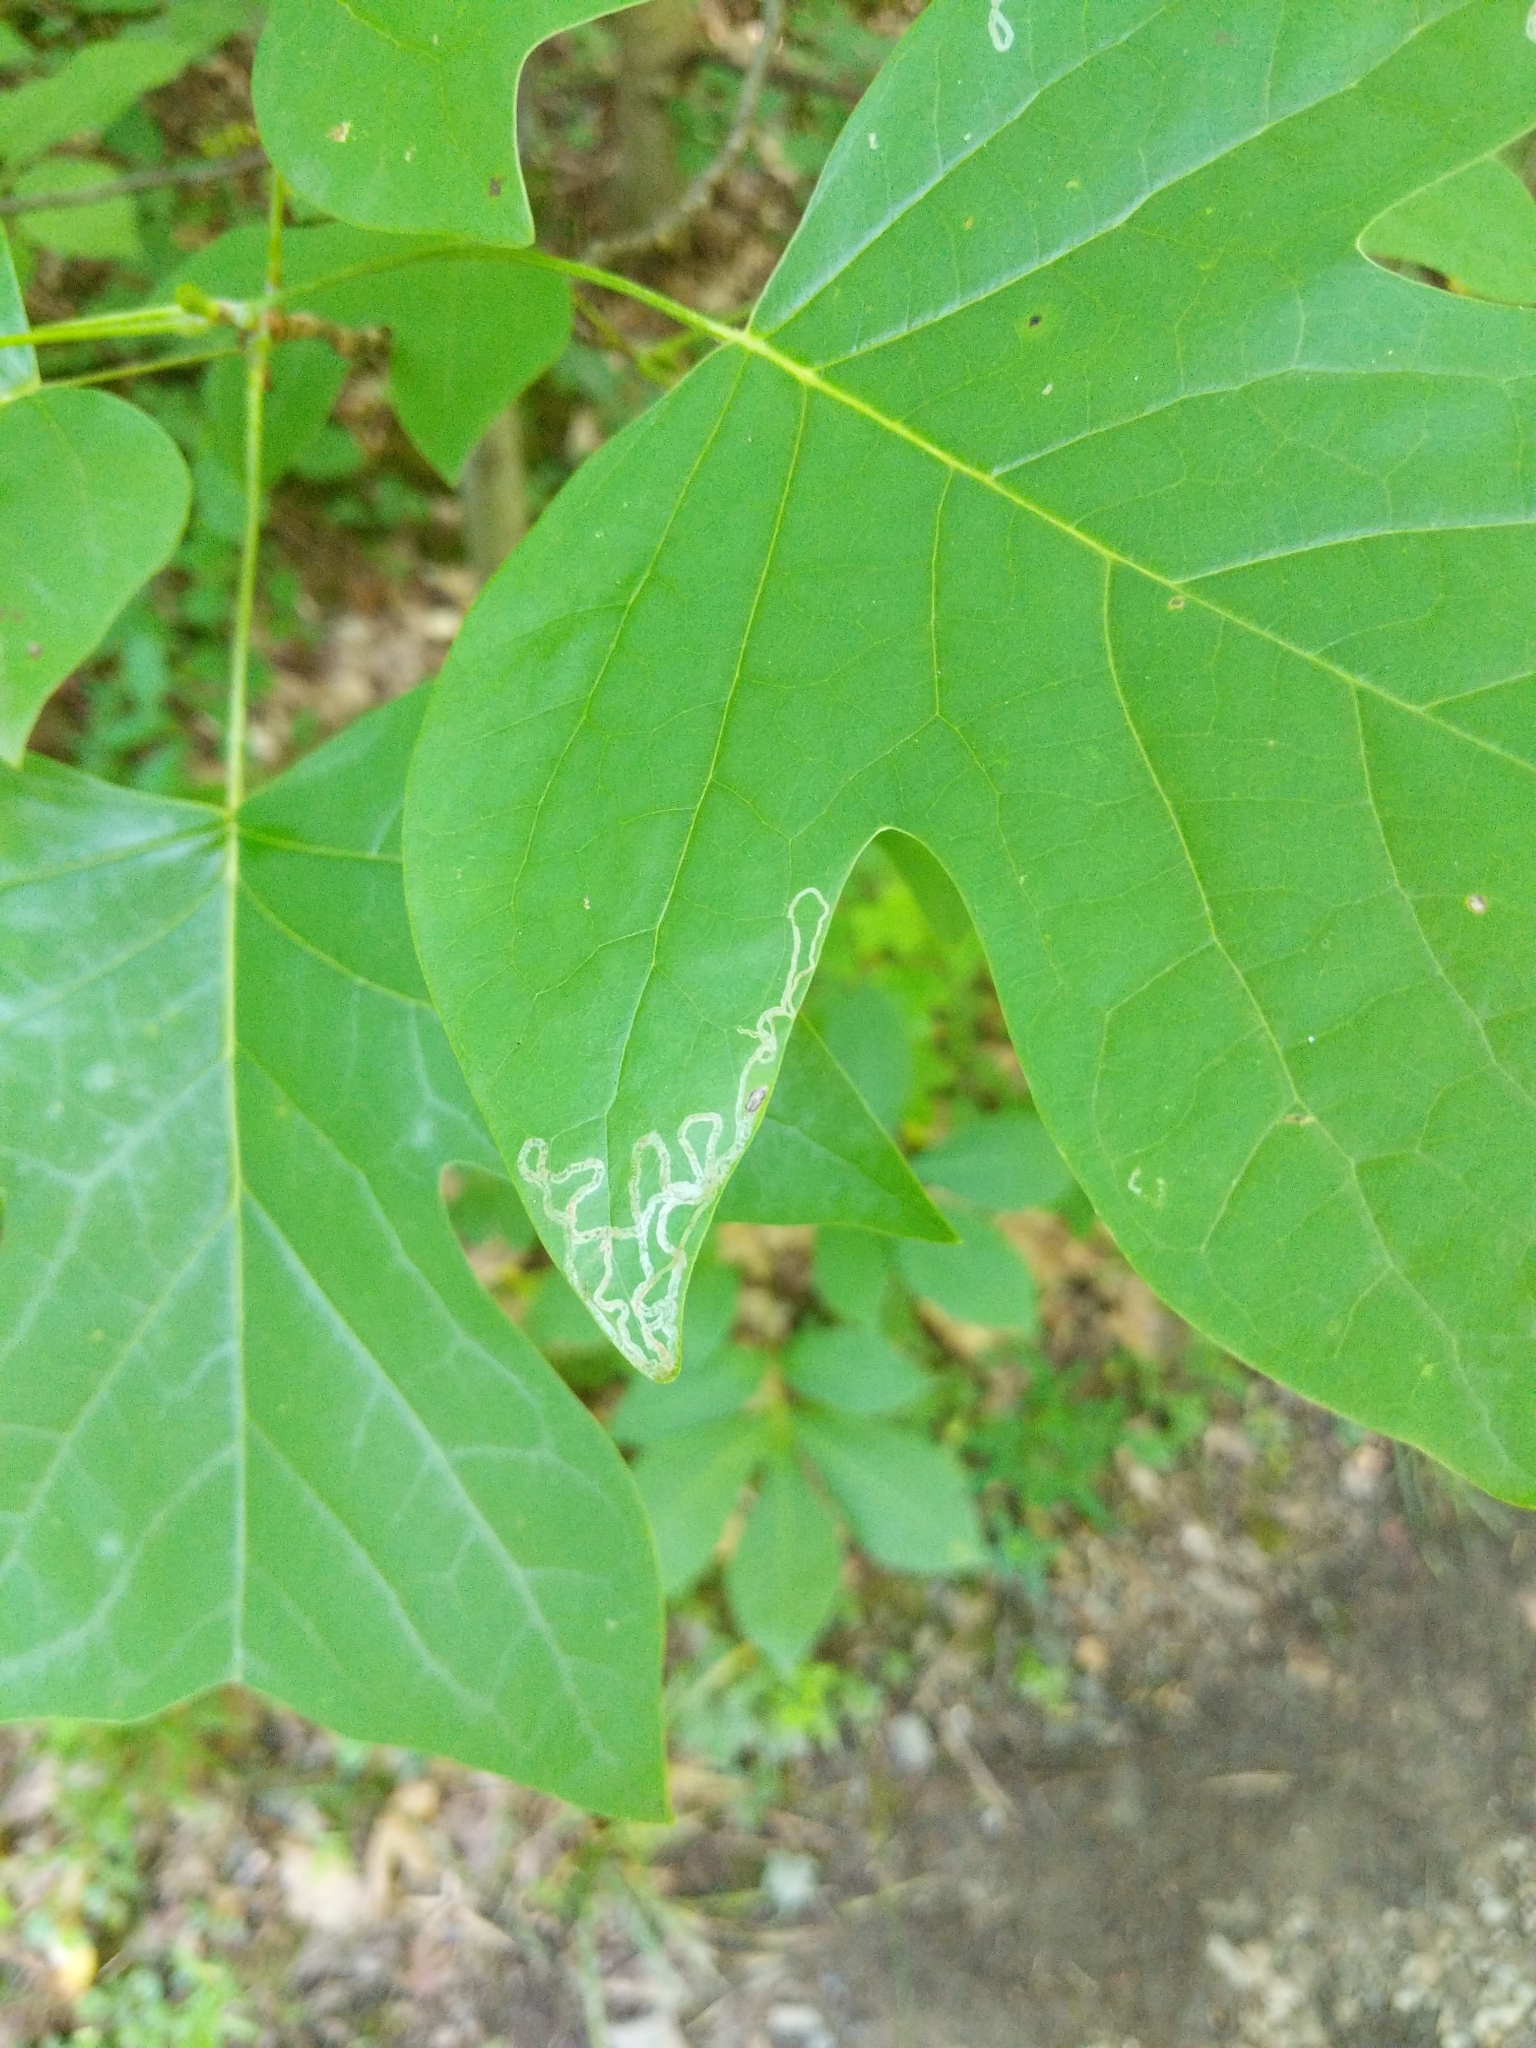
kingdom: Animalia
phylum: Arthropoda
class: Insecta
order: Lepidoptera
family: Gracillariidae
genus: Phyllocnistis
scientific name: Phyllocnistis liriodendronella
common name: Tulip tree leaf miner
